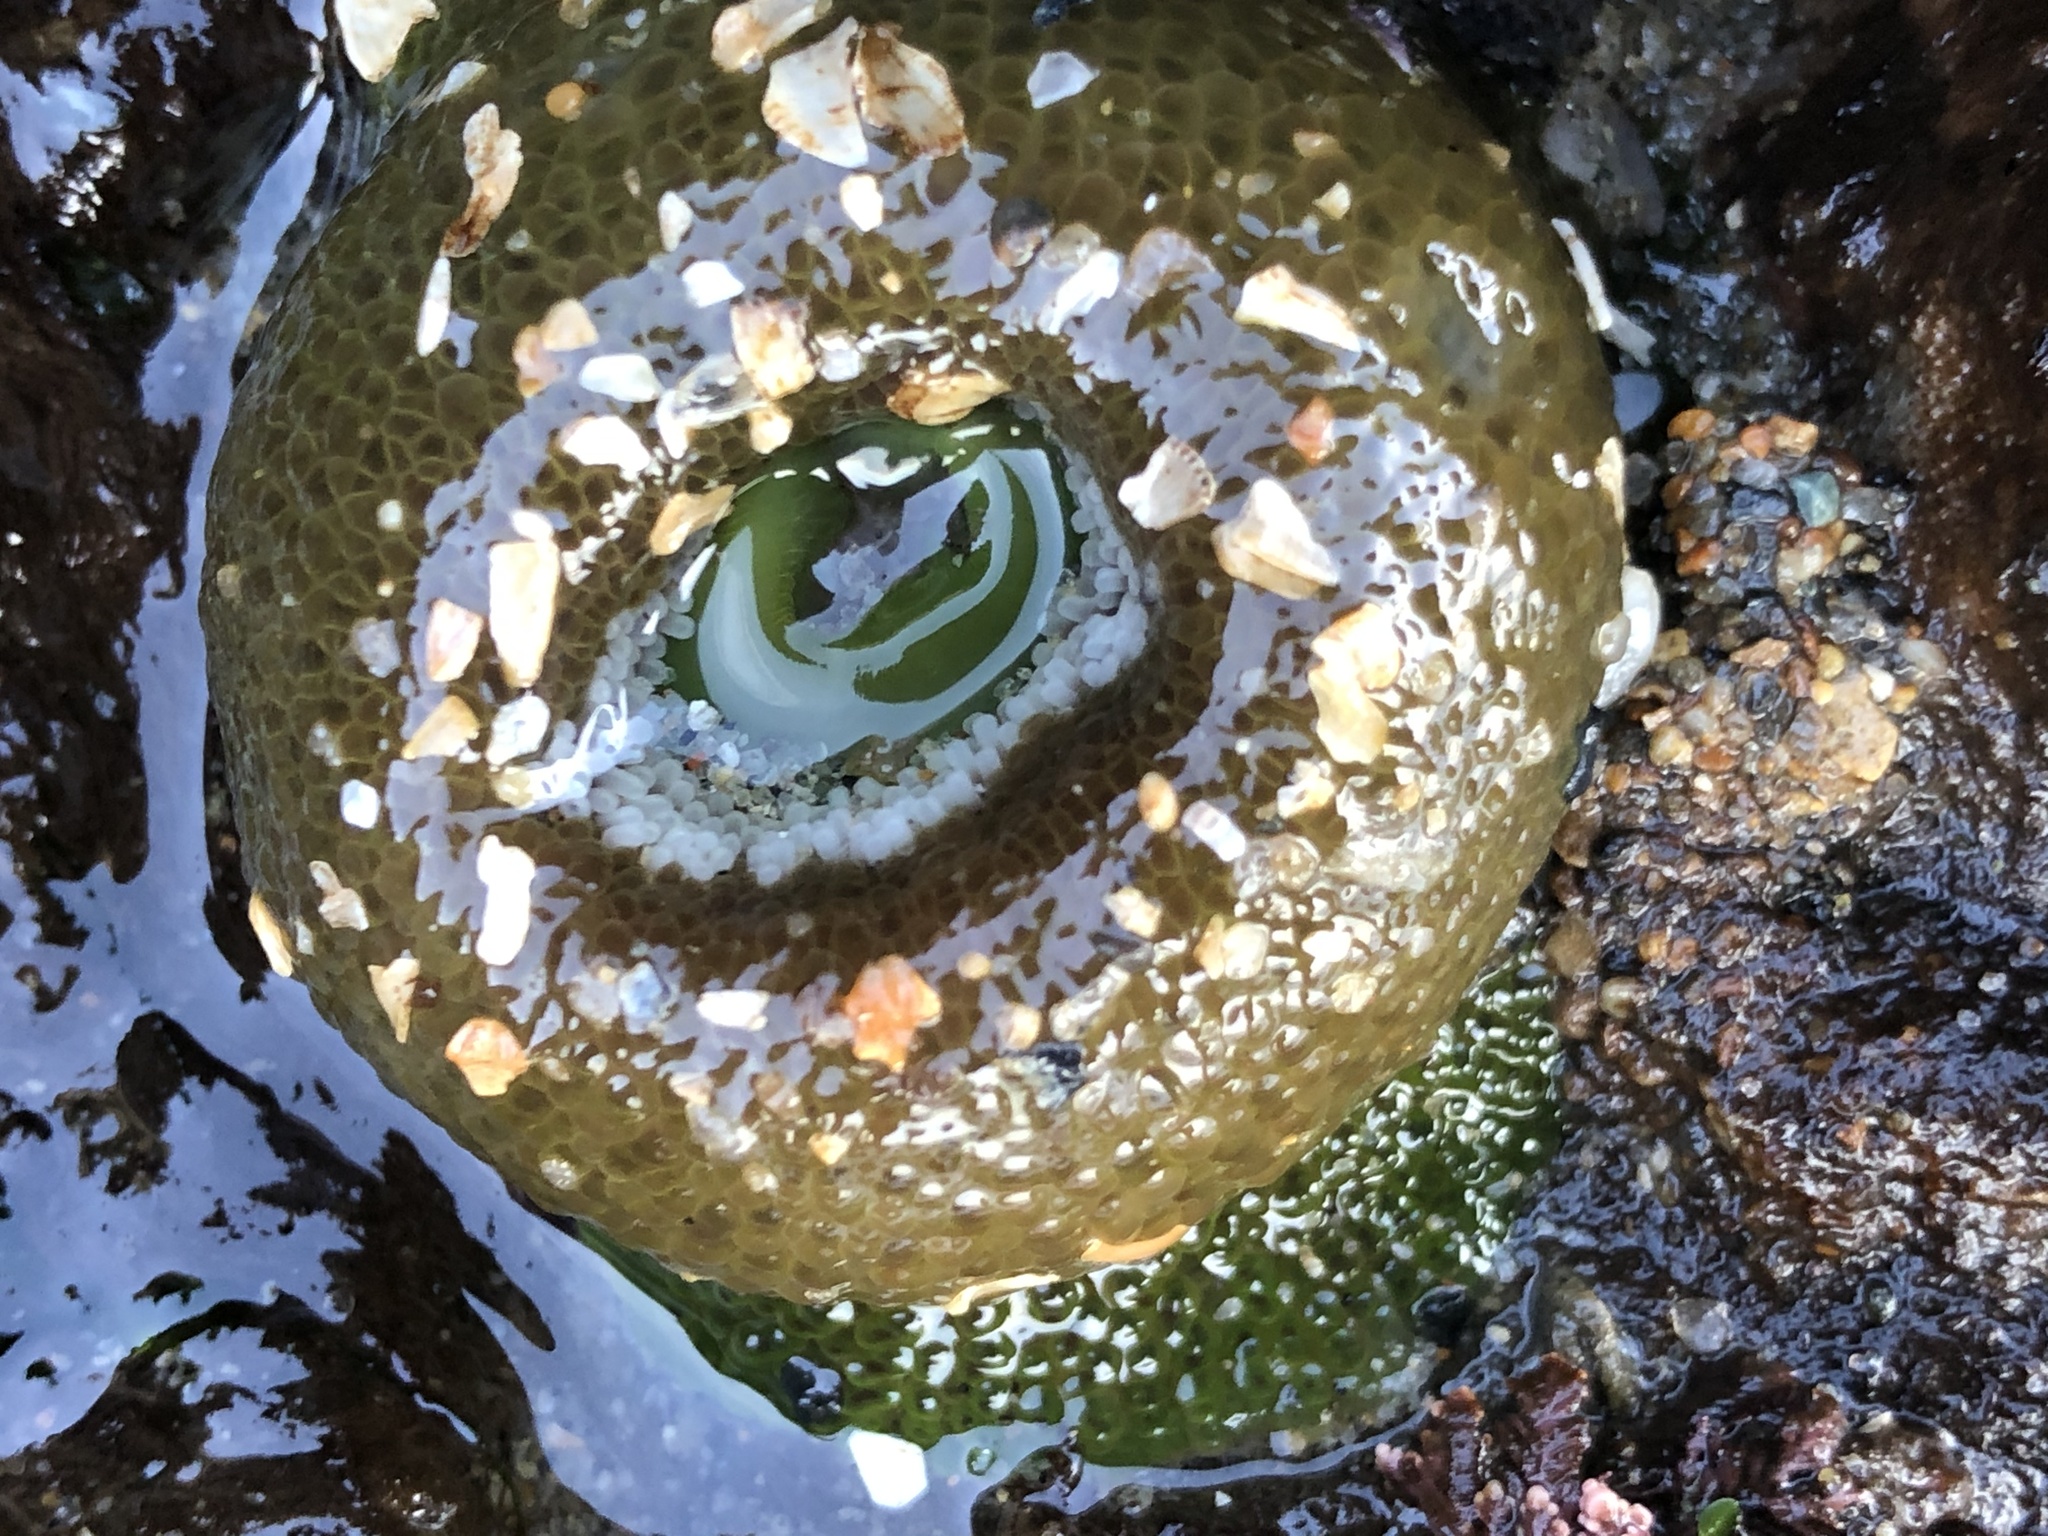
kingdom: Animalia
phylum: Cnidaria
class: Anthozoa
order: Actiniaria
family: Actiniidae
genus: Anthopleura
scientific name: Anthopleura xanthogrammica
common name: Giant green anemone
